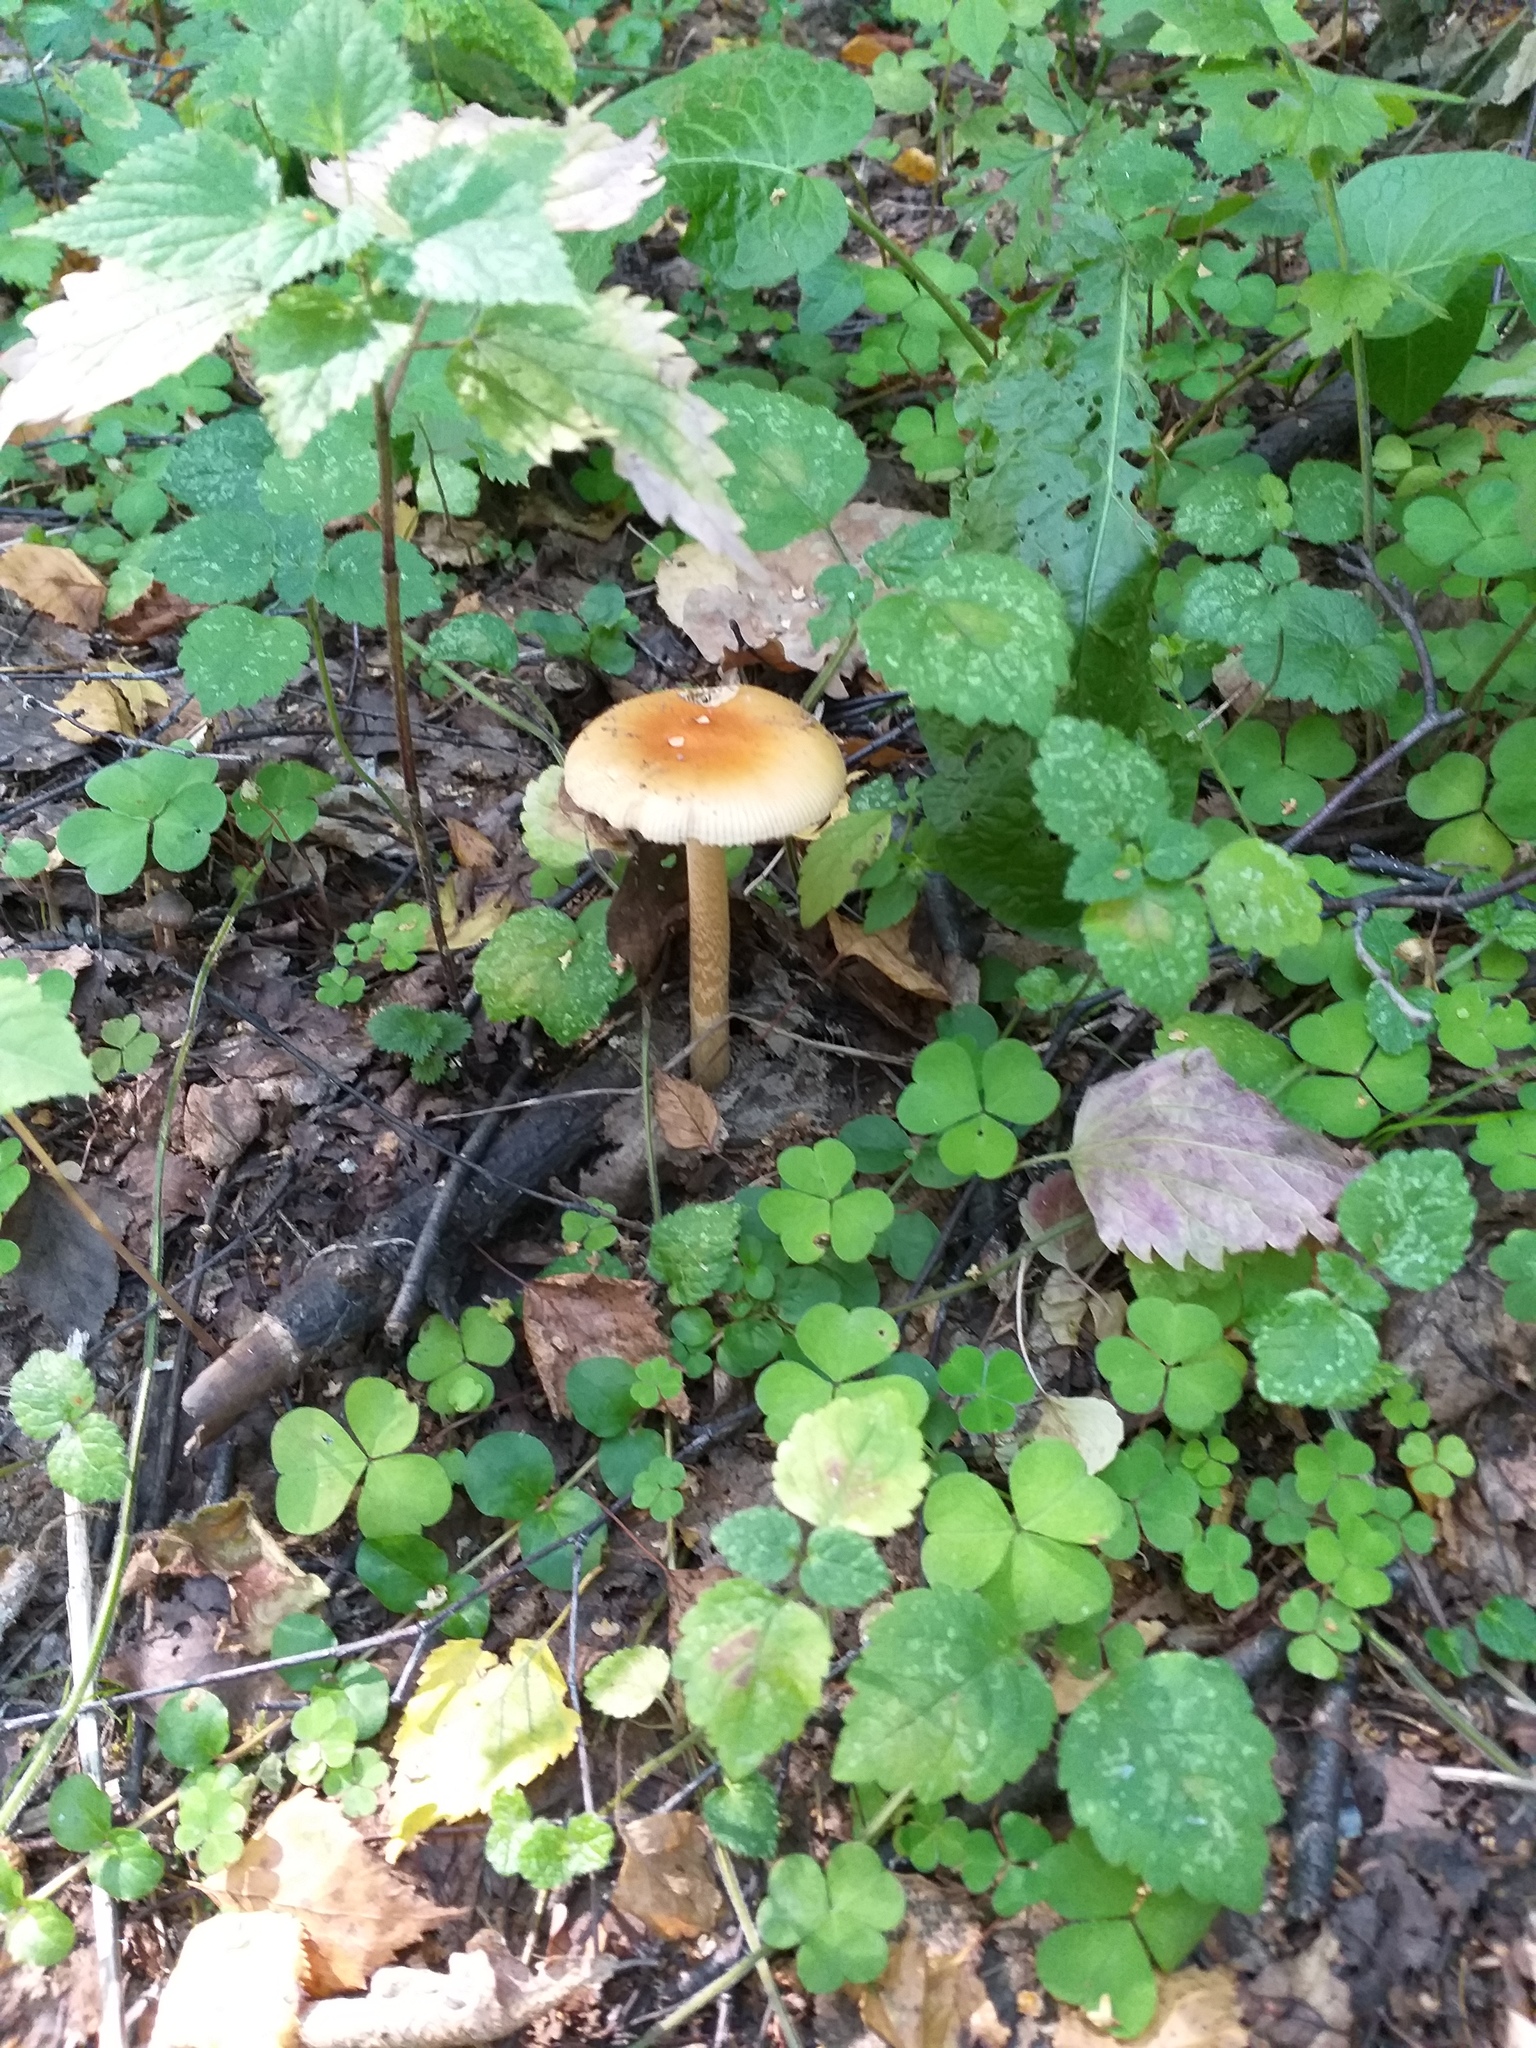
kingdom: Fungi
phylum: Basidiomycota
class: Agaricomycetes
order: Agaricales
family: Amanitaceae
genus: Amanita
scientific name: Amanita crocea
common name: Orange grisette
